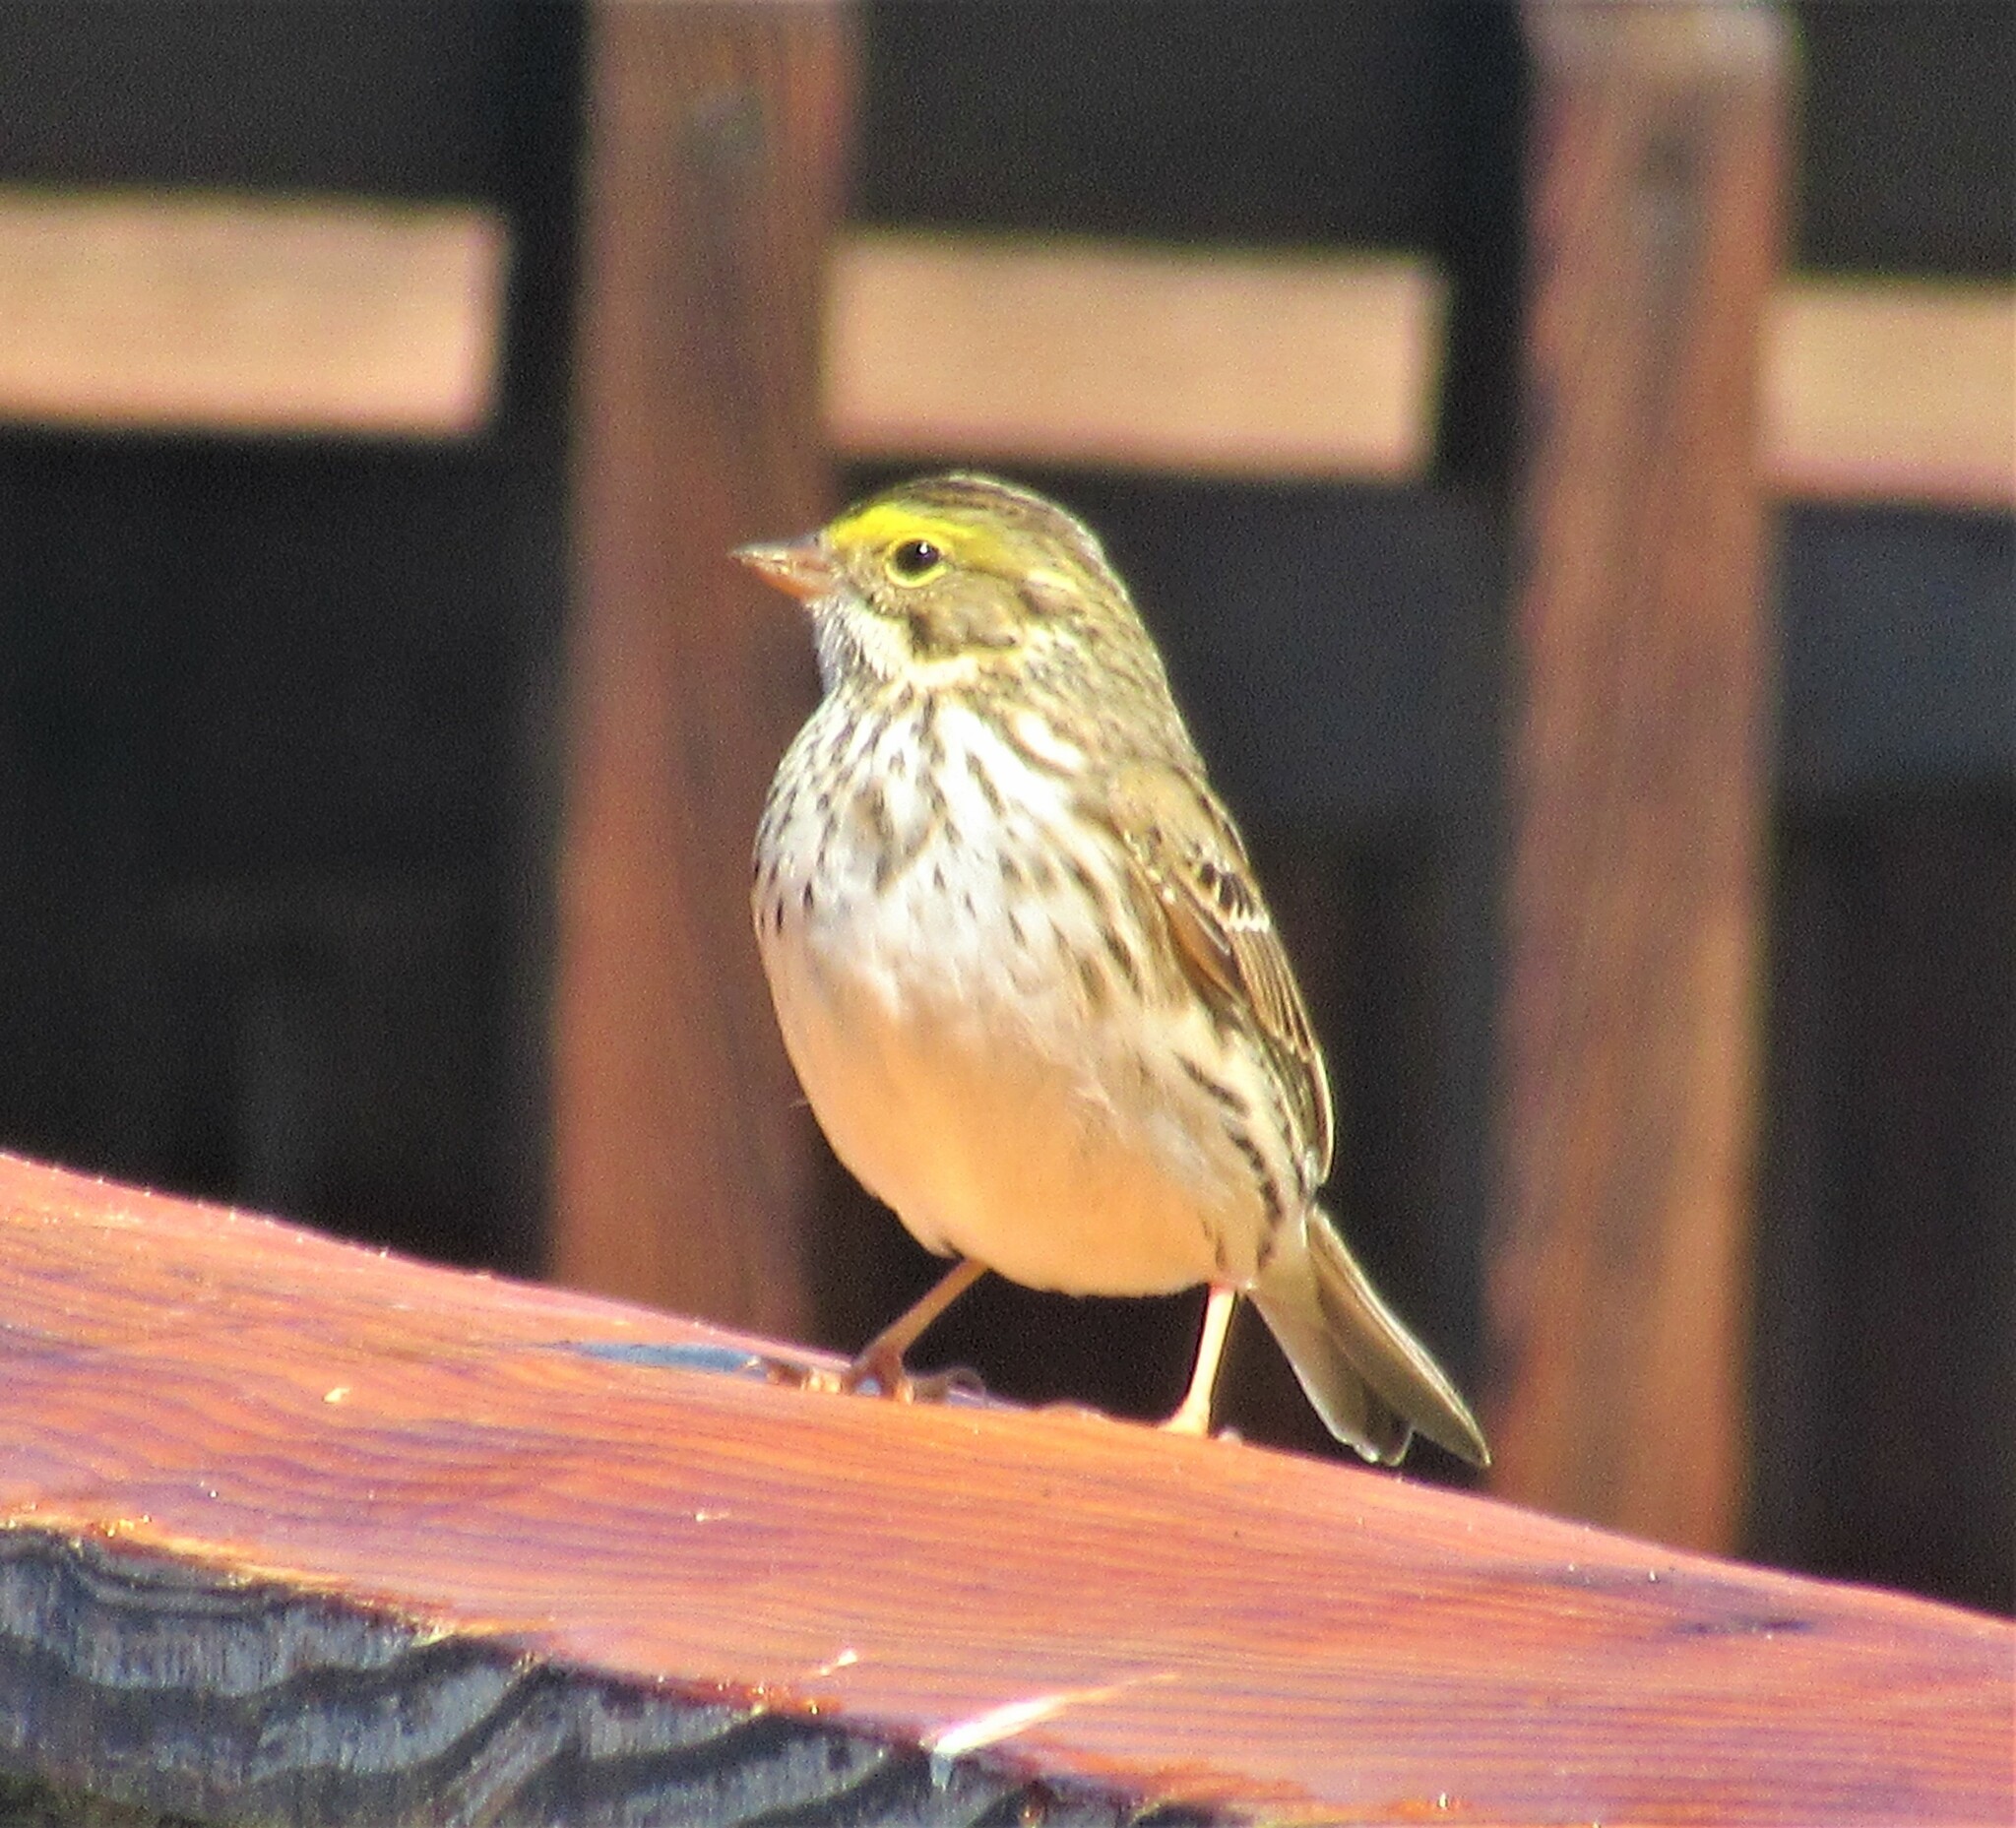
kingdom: Animalia
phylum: Chordata
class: Aves
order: Passeriformes
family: Passerellidae
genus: Passerculus
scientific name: Passerculus sandwichensis
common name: Savannah sparrow
